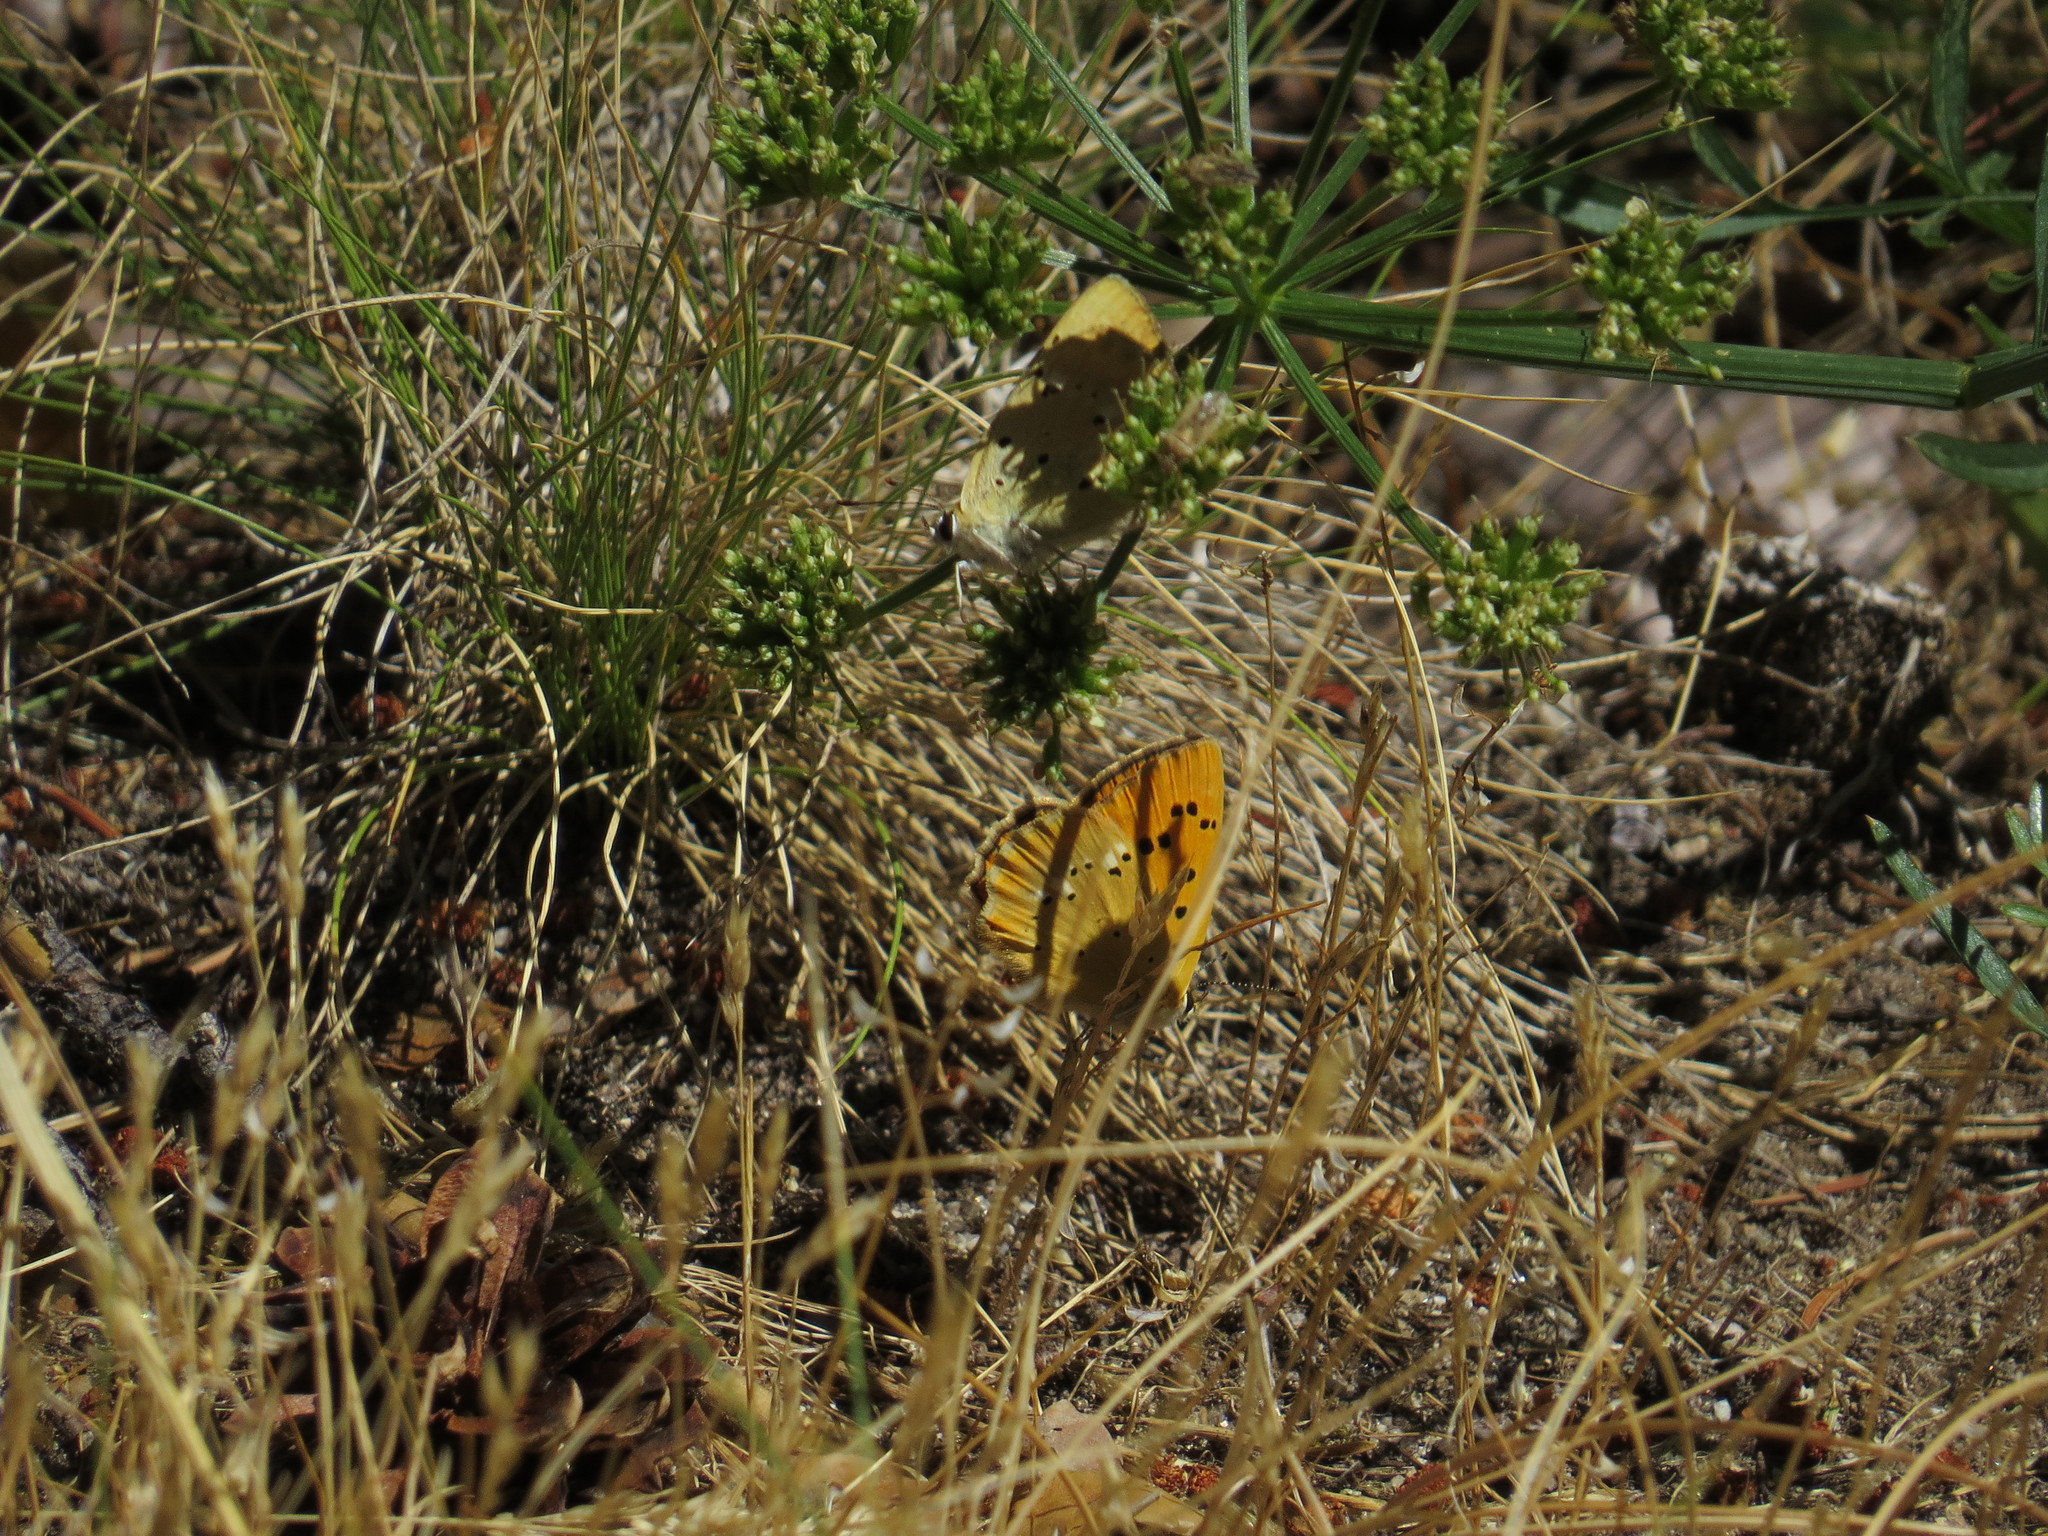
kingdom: Animalia
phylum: Arthropoda
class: Insecta
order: Lepidoptera
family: Lycaenidae
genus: Lycaena
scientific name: Lycaena virgaureae
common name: Scarce copper
